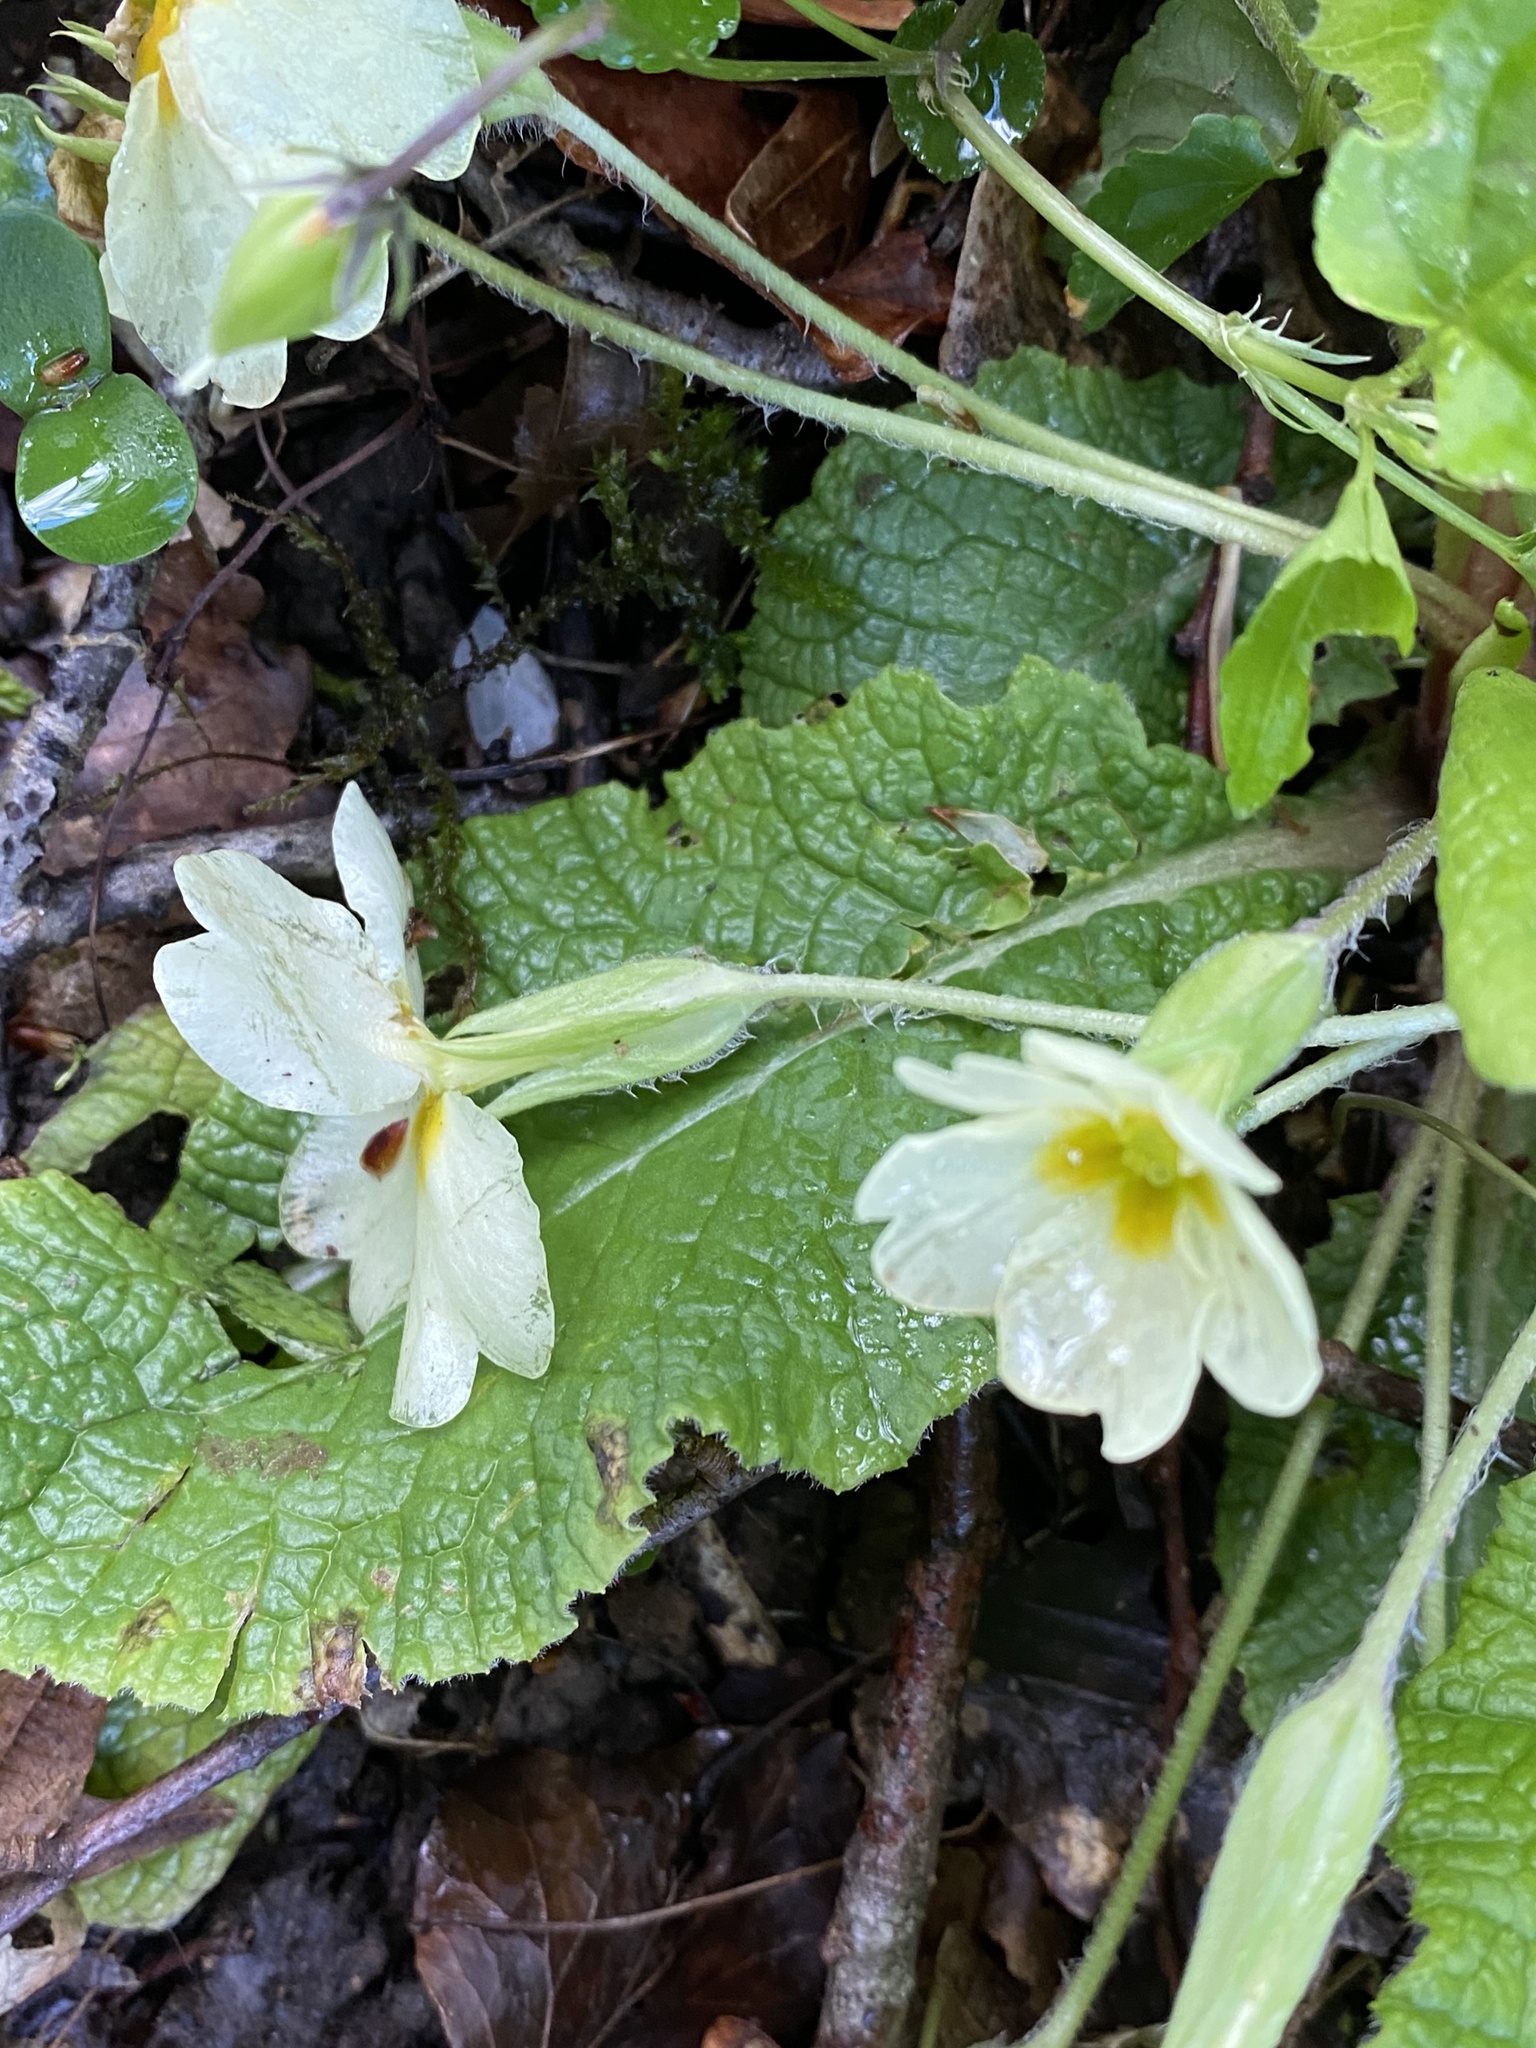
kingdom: Plantae
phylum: Tracheophyta
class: Magnoliopsida
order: Ericales
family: Primulaceae
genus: Primula
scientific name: Primula vulgaris
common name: Primrose
